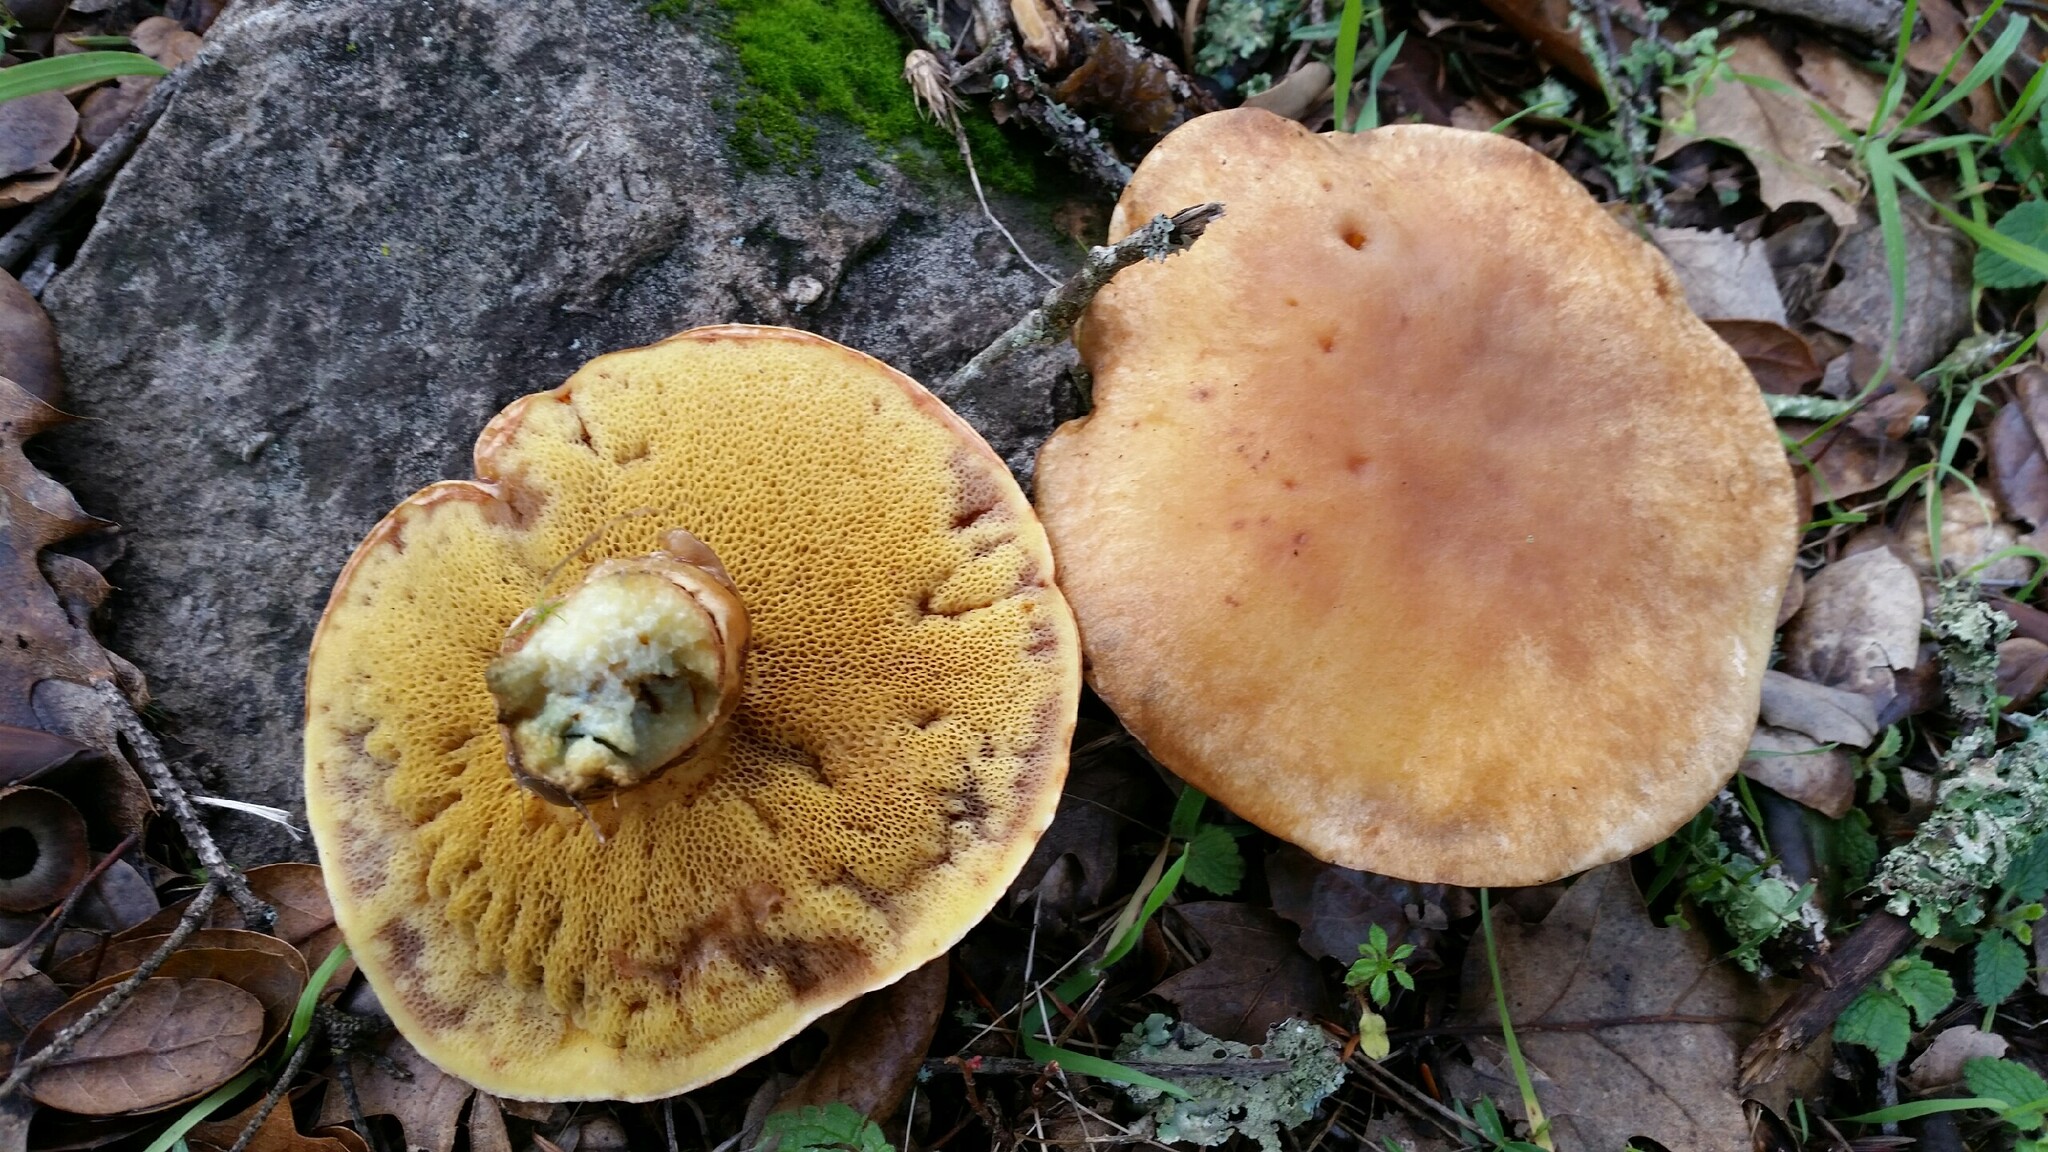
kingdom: Fungi
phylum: Basidiomycota
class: Agaricomycetes
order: Boletales
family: Suillaceae
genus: Suillus
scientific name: Suillus caerulescens
